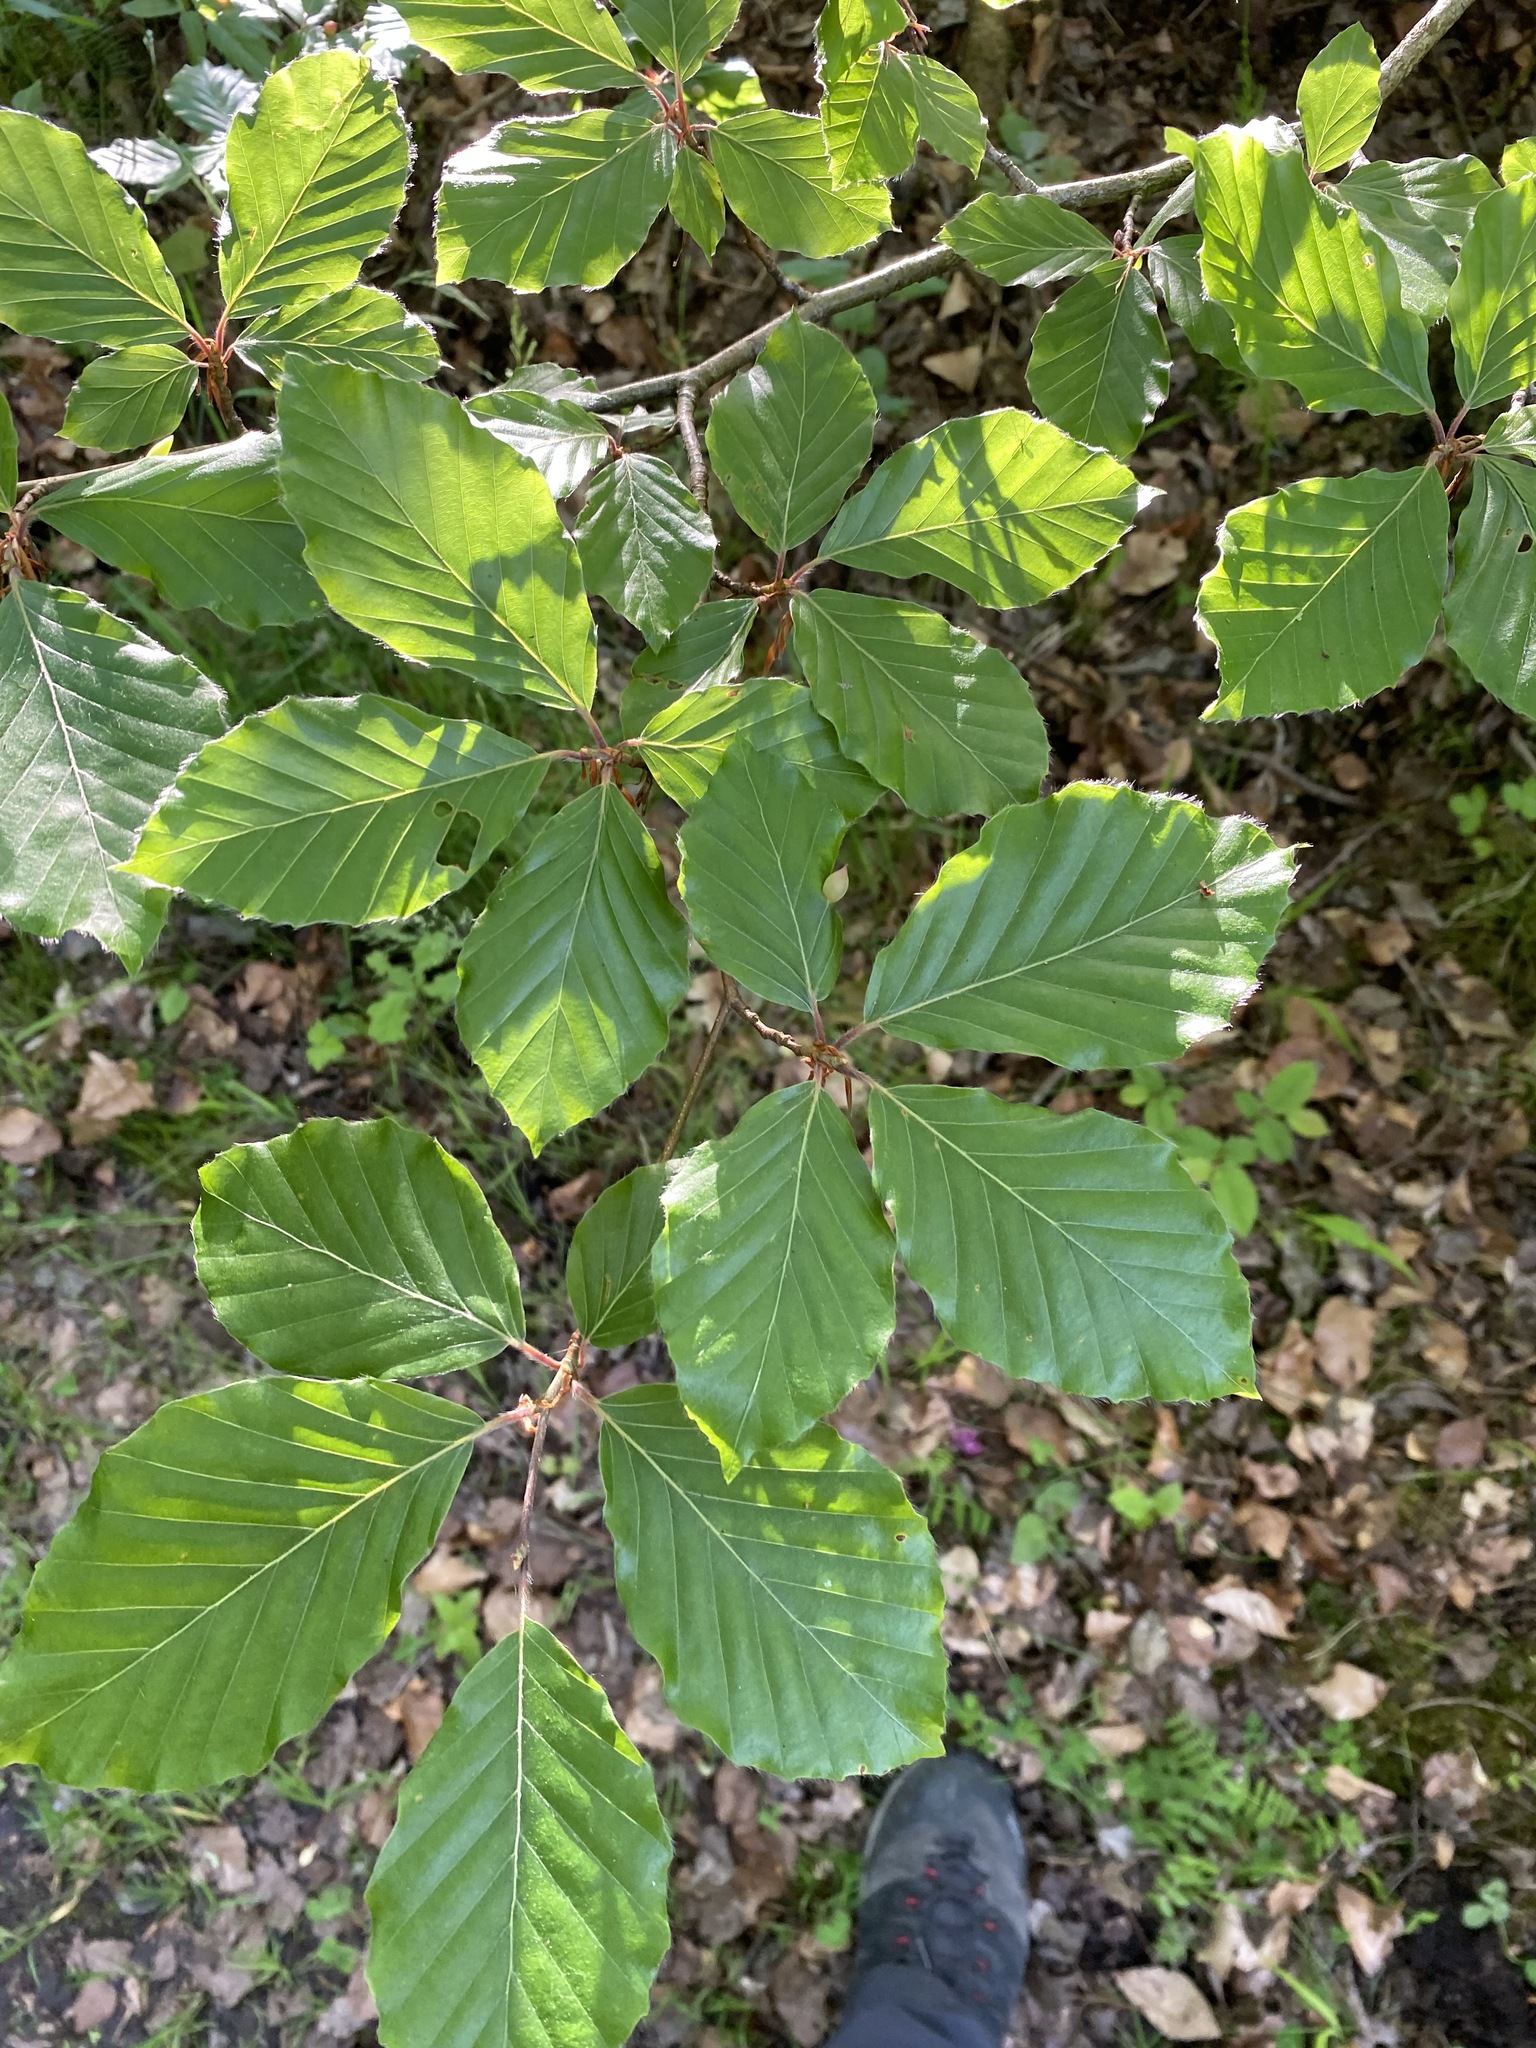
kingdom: Plantae
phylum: Tracheophyta
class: Magnoliopsida
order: Fagales
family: Fagaceae
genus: Fagus
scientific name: Fagus sylvatica
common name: Beech
